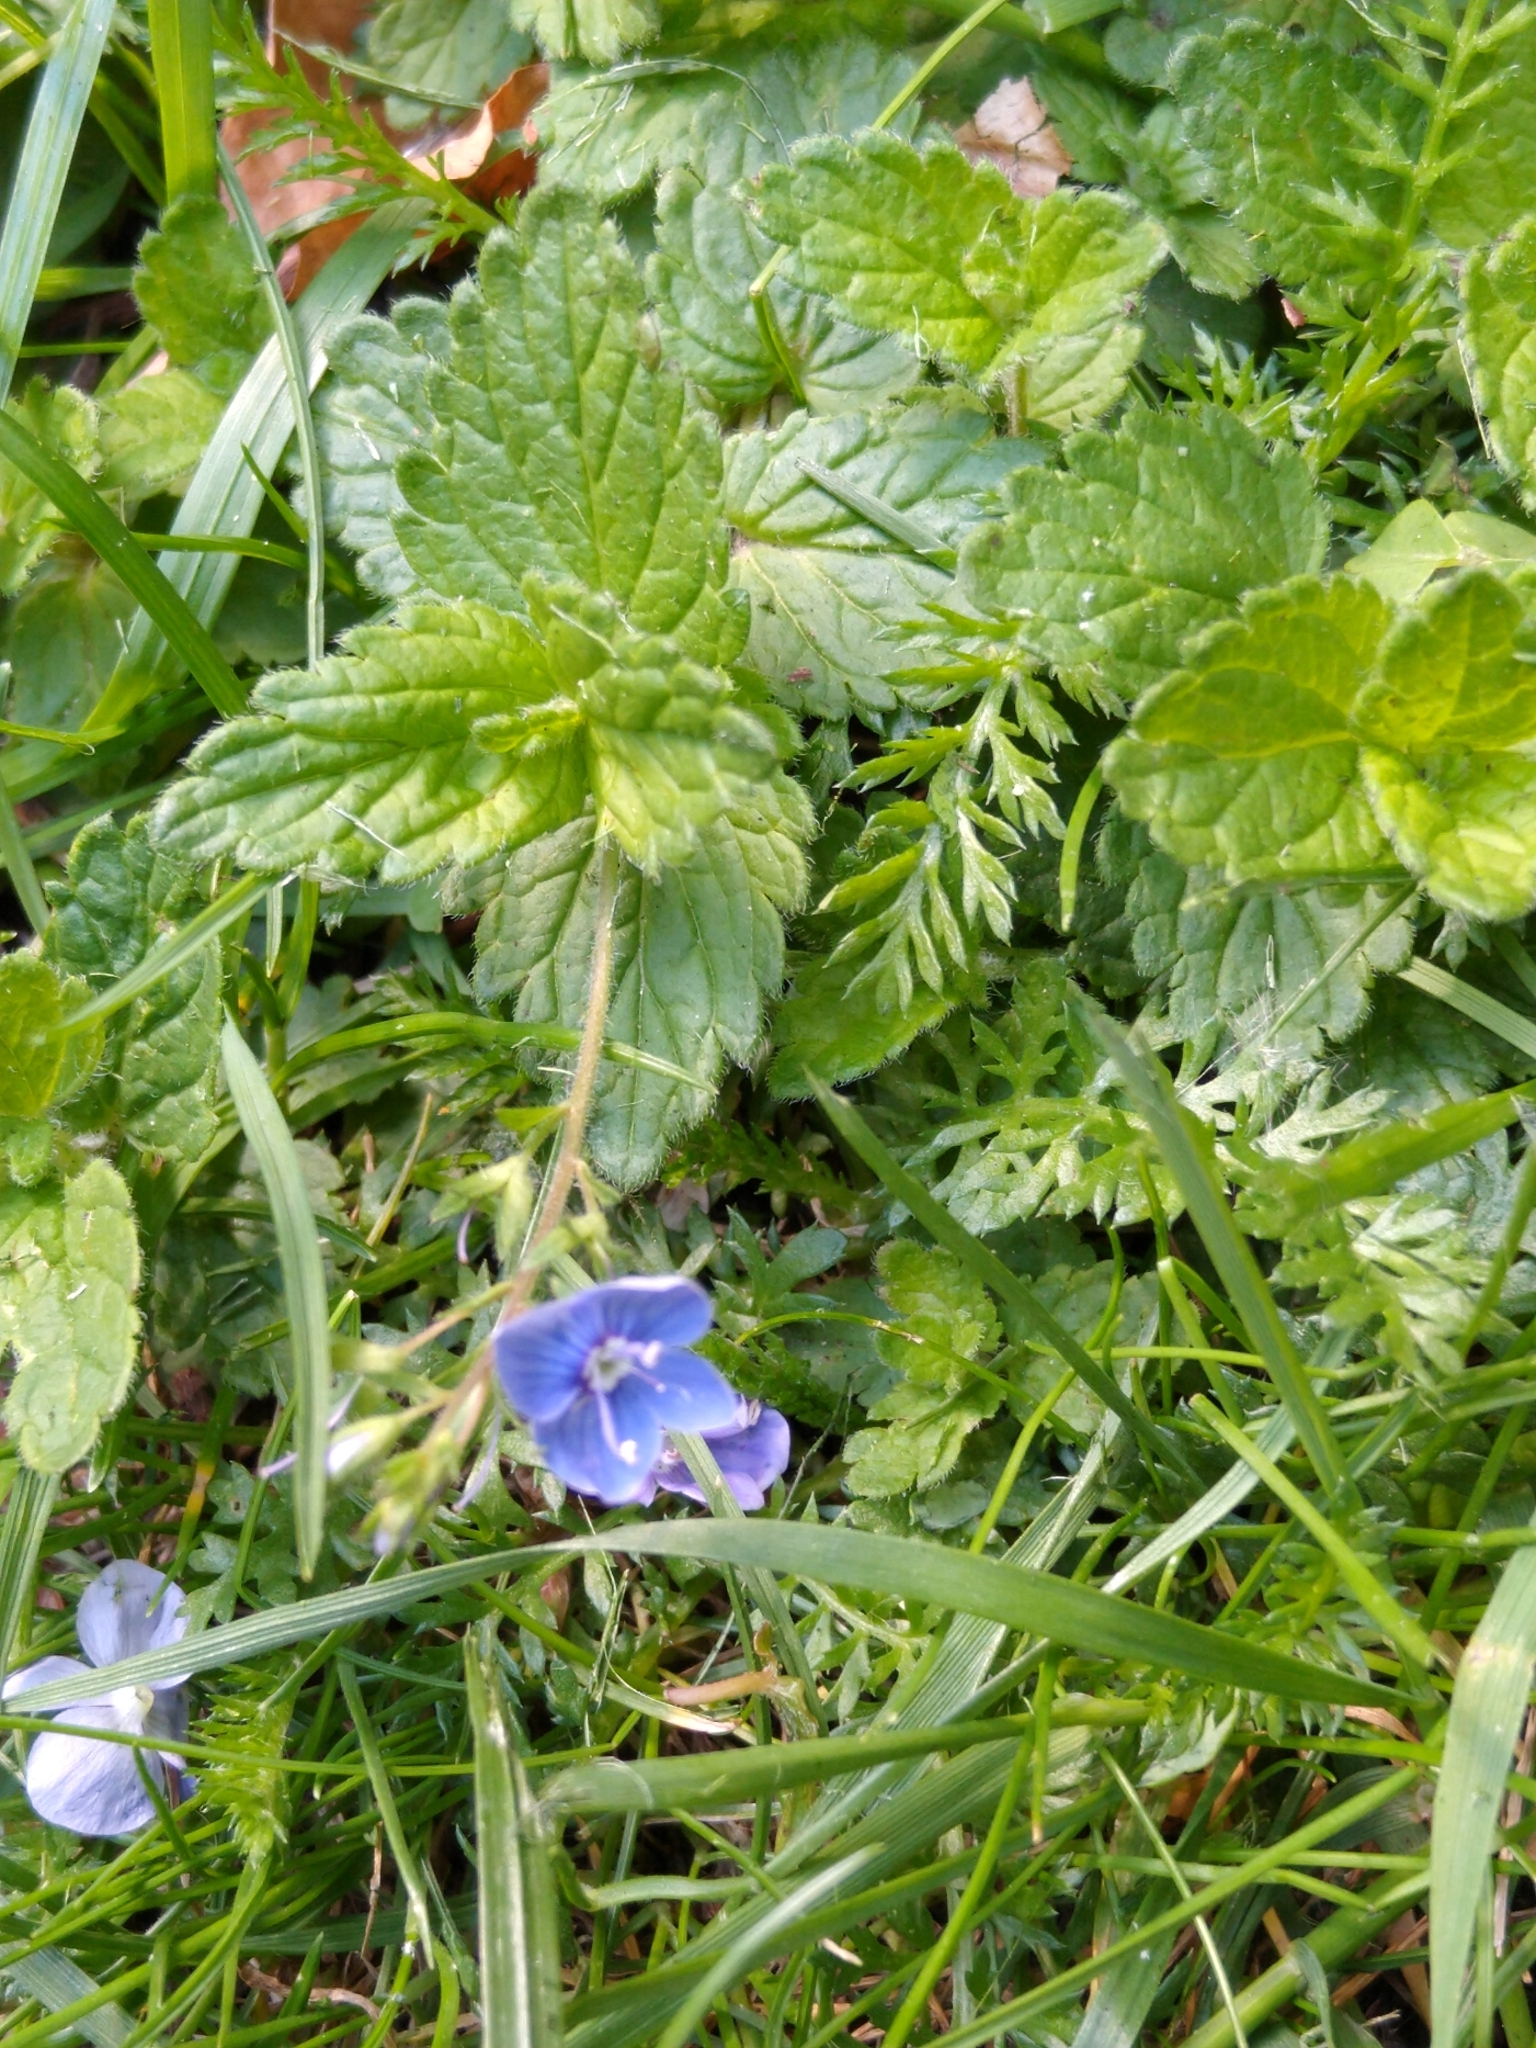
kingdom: Plantae
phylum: Tracheophyta
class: Magnoliopsida
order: Lamiales
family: Plantaginaceae
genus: Veronica
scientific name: Veronica chamaedrys
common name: Germander speedwell
